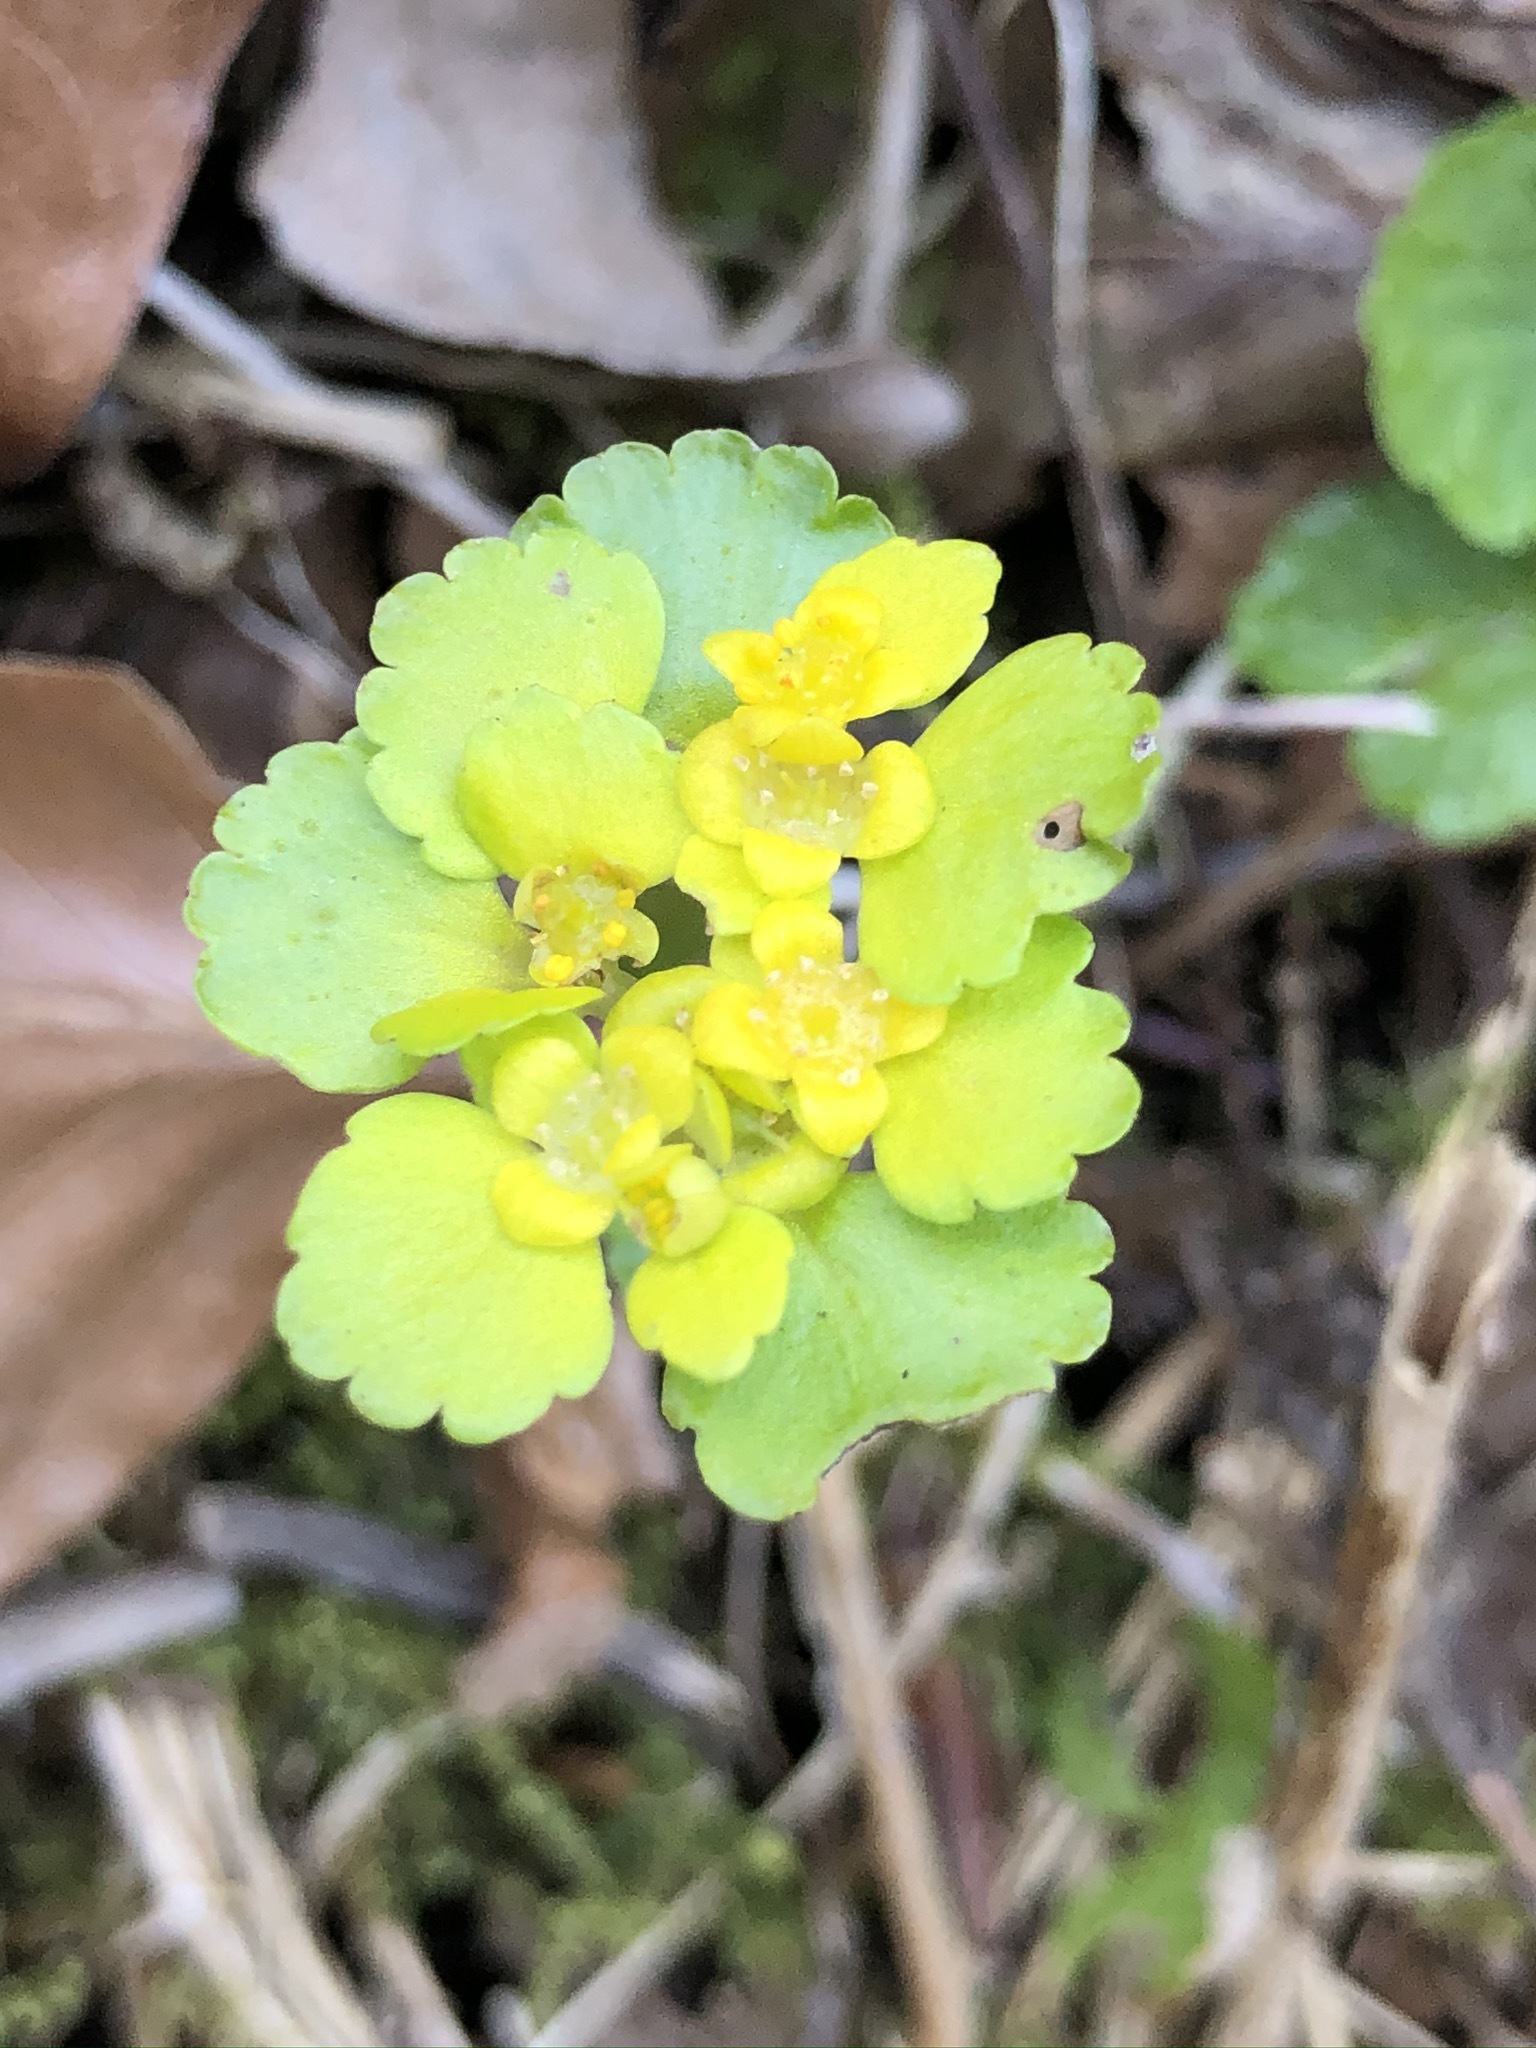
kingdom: Plantae
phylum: Tracheophyta
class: Magnoliopsida
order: Saxifragales
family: Saxifragaceae
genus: Chrysosplenium
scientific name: Chrysosplenium alternifolium
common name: Alternate-leaved golden-saxifrage
